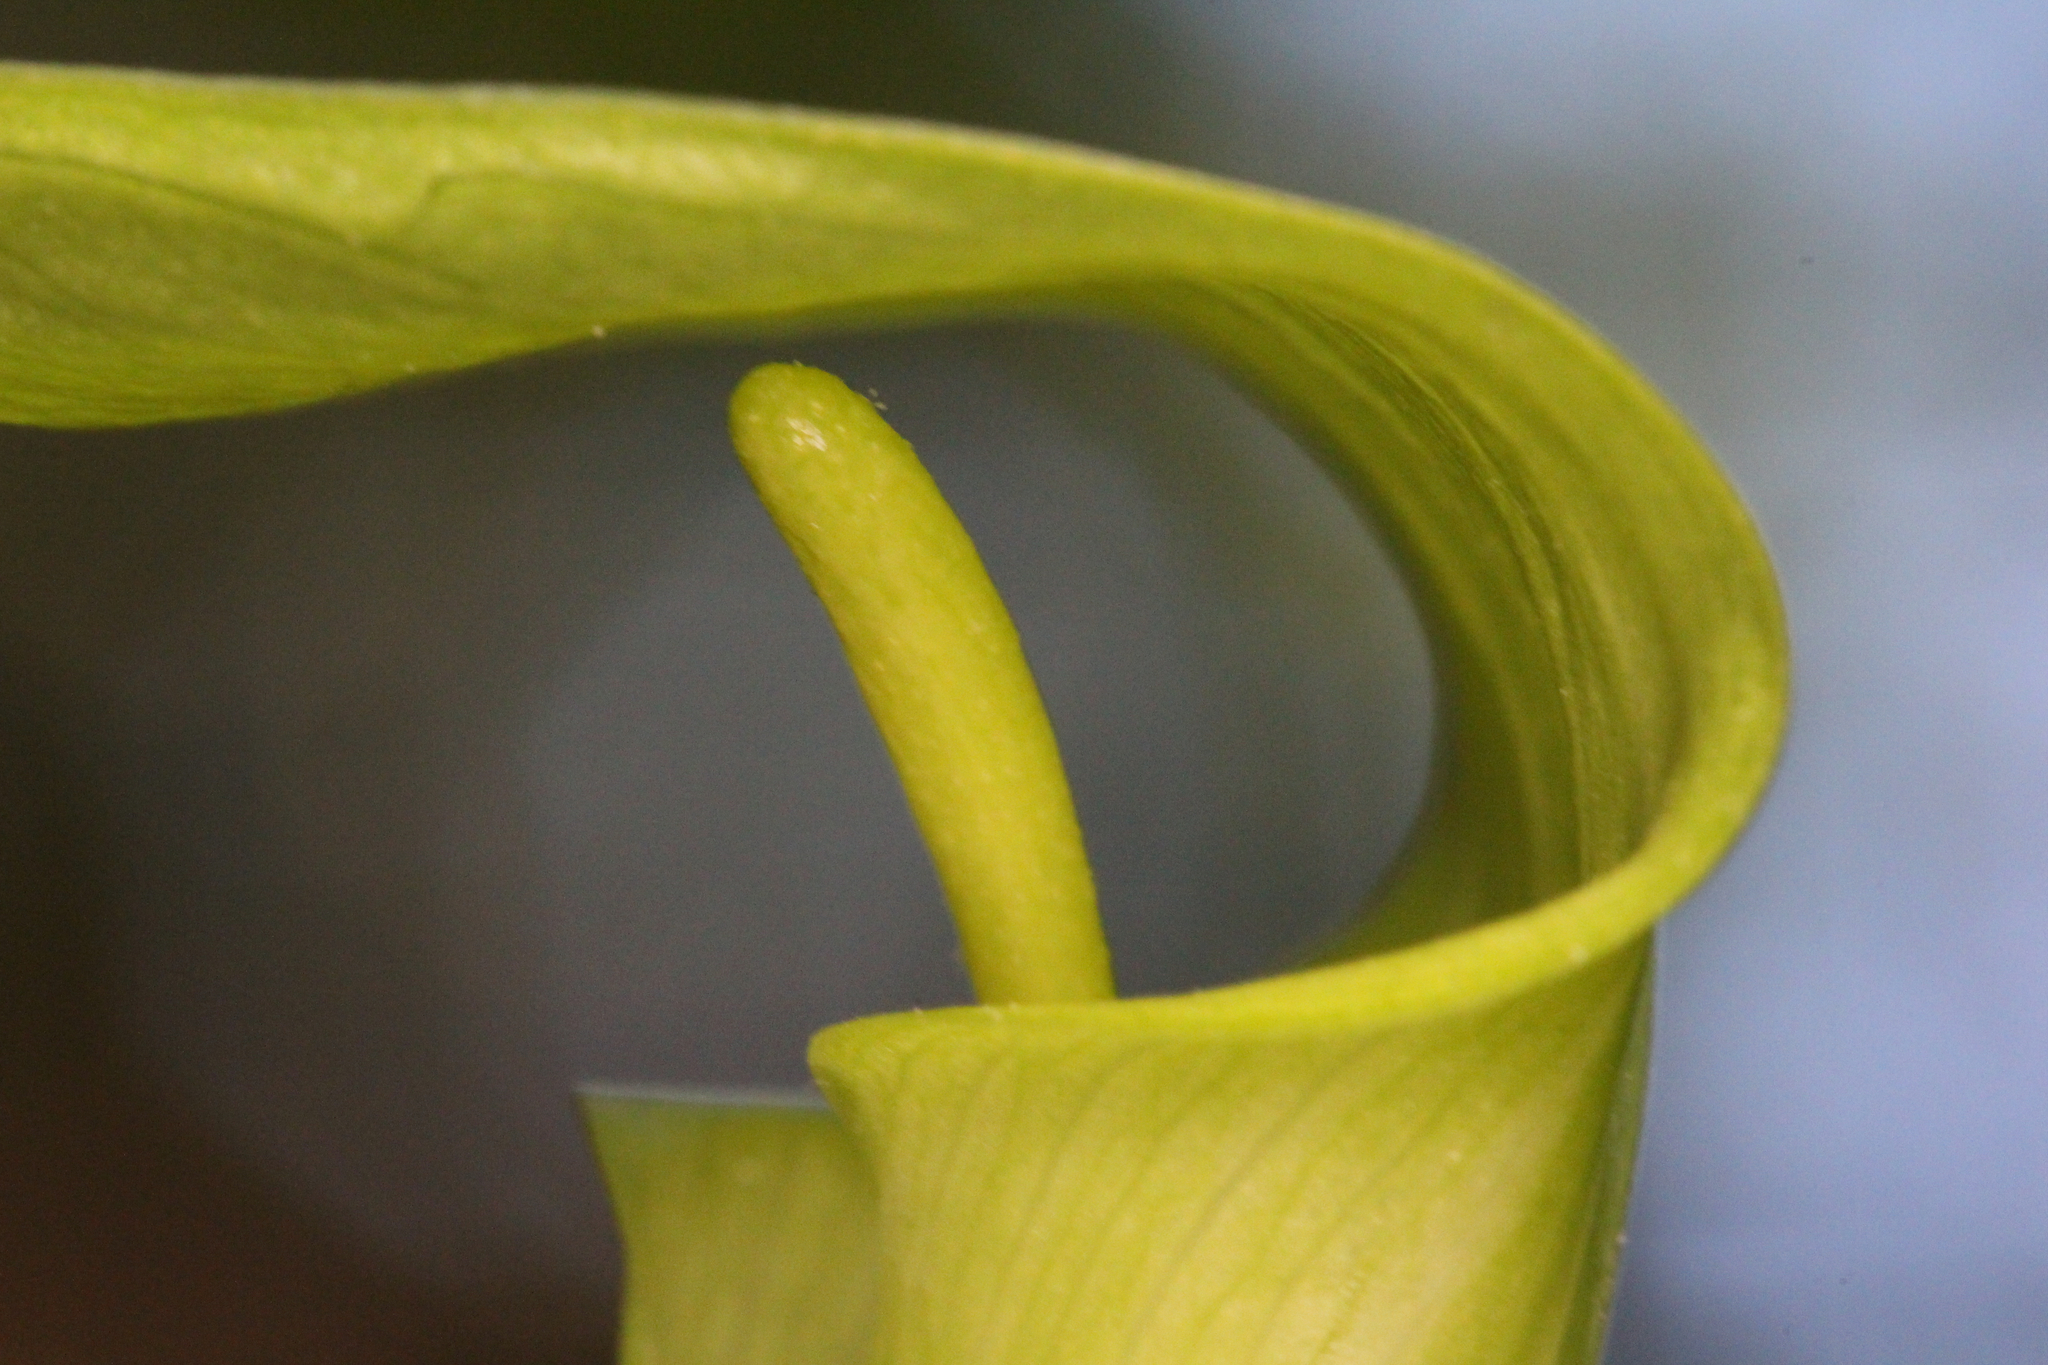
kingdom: Plantae
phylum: Tracheophyta
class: Liliopsida
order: Alismatales
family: Araceae
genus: Arisaema
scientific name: Arisaema quinatum
